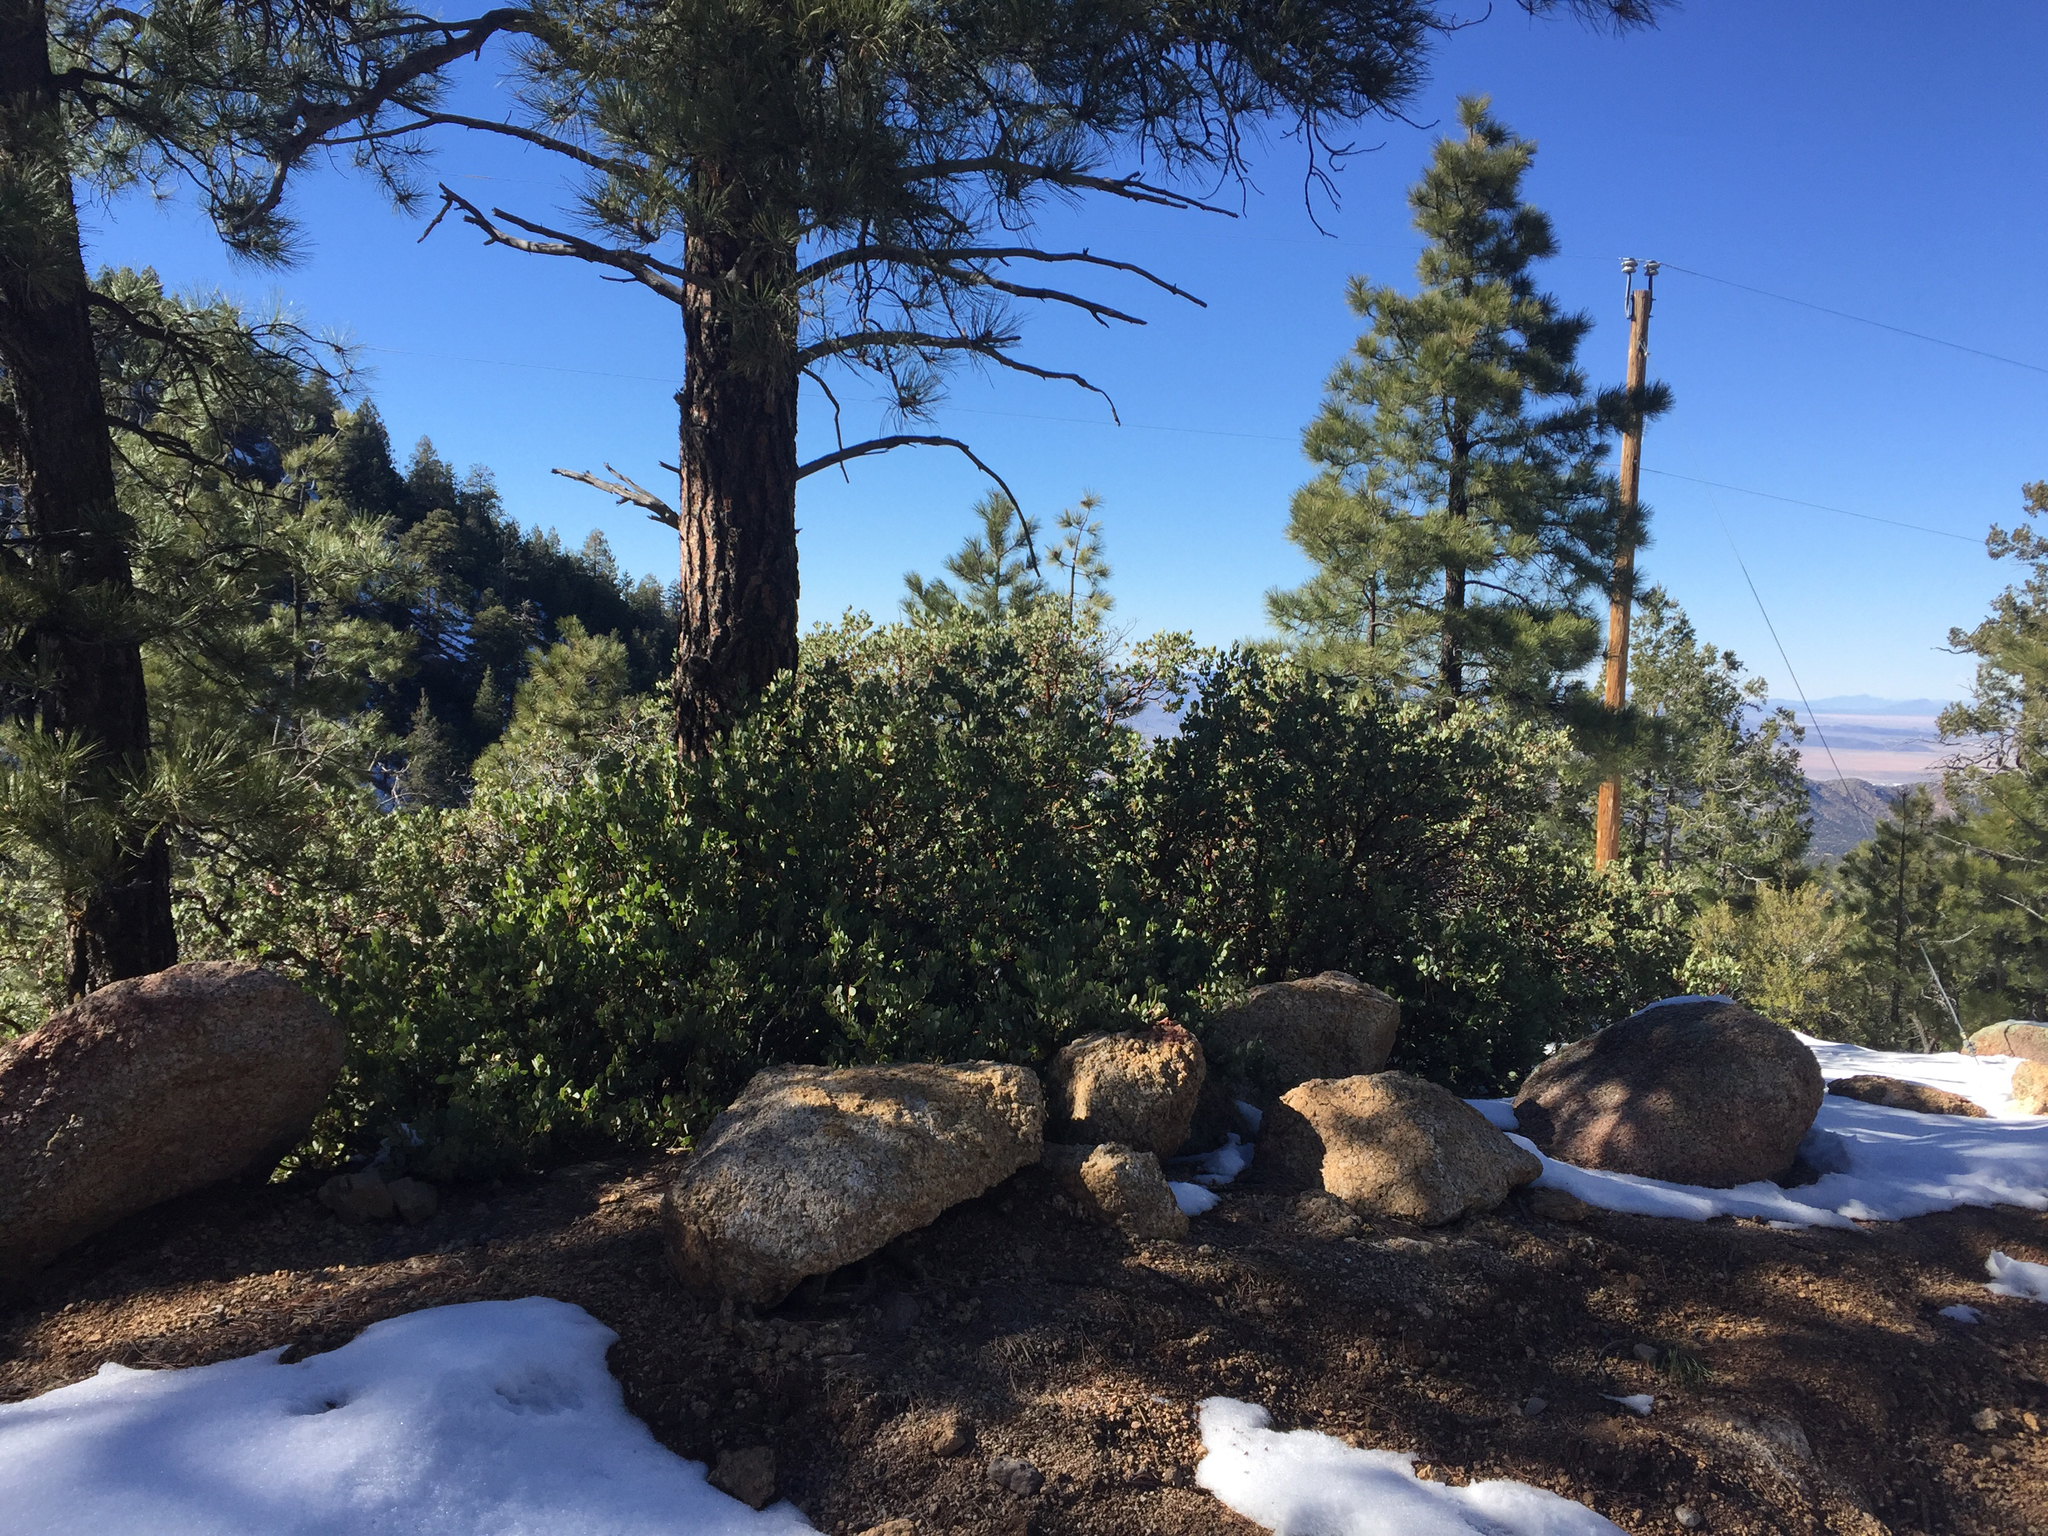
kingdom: Plantae
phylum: Tracheophyta
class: Magnoliopsida
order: Ericales
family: Ericaceae
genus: Arctostaphylos
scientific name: Arctostaphylos pringlei
